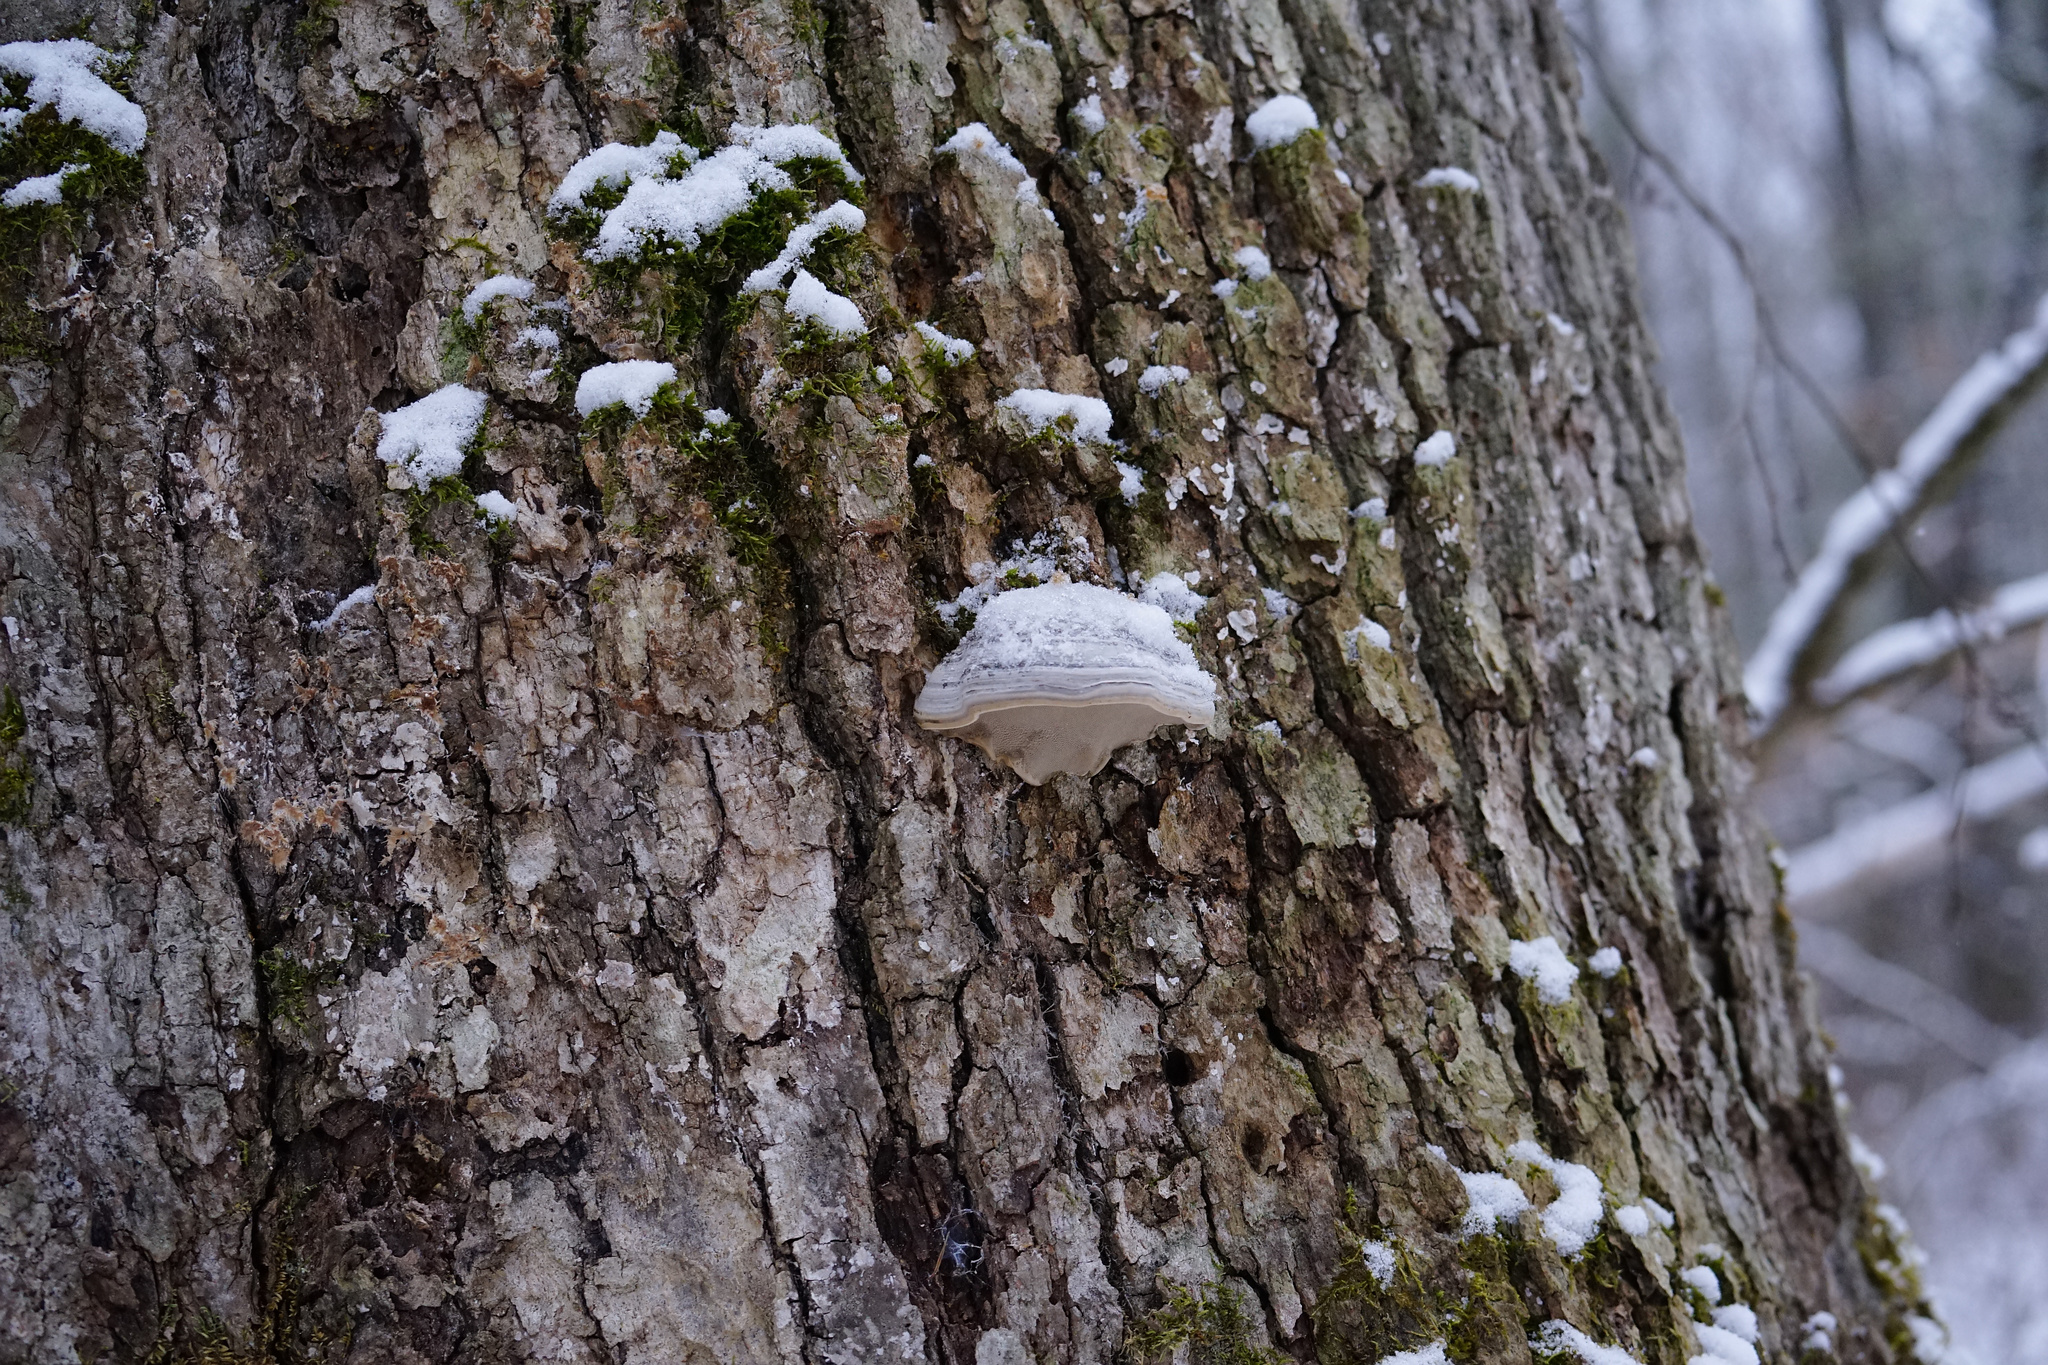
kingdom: Fungi
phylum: Basidiomycota
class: Agaricomycetes
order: Polyporales
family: Polyporaceae
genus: Fomes
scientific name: Fomes fomentarius
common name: Hoof fungus
